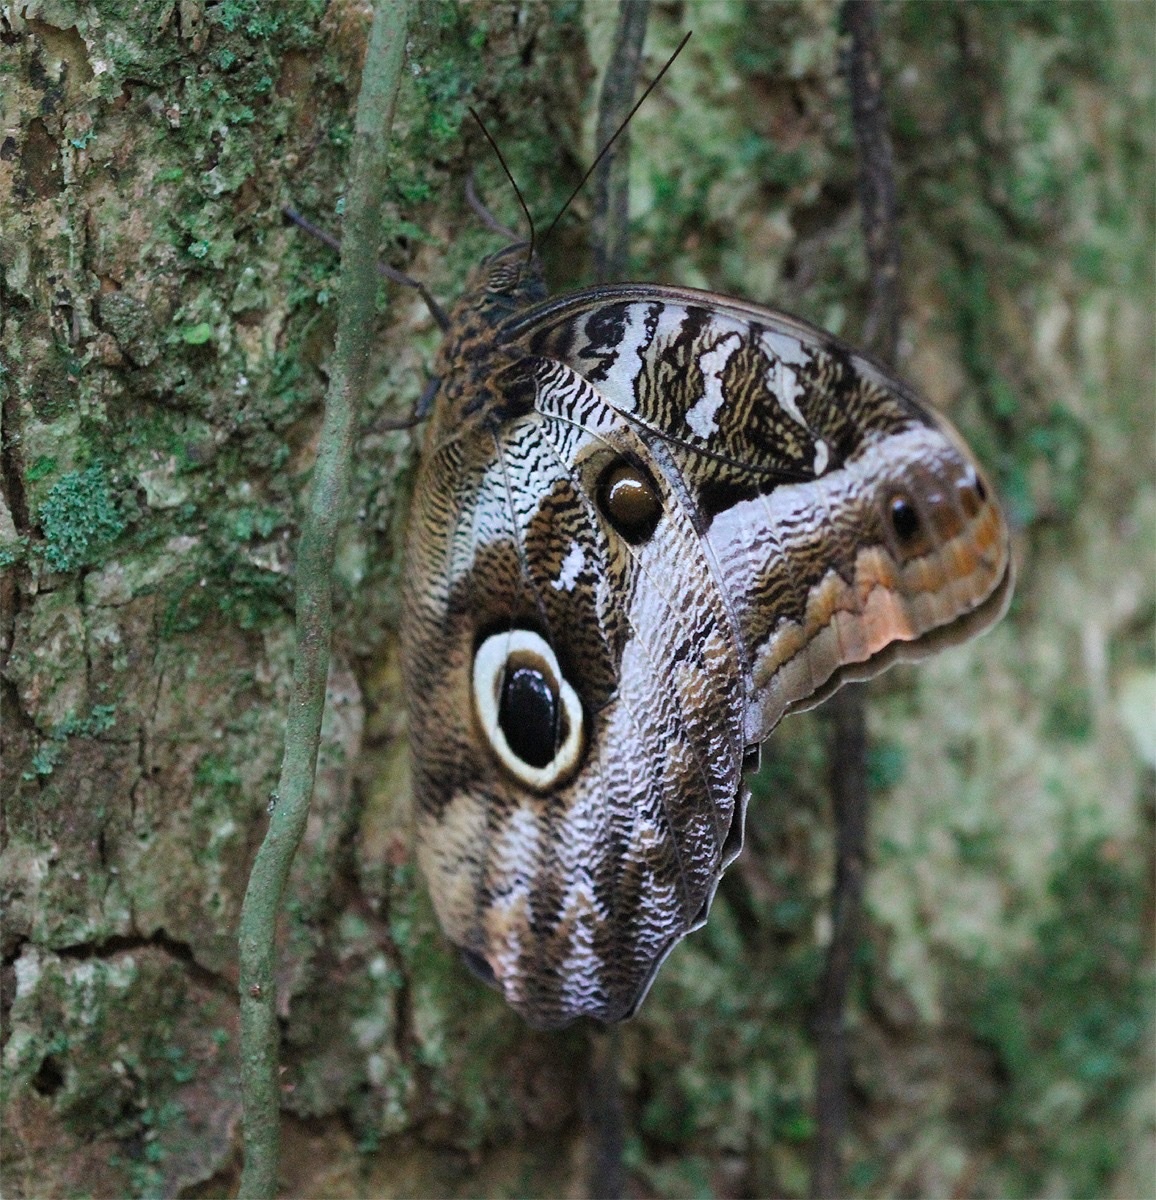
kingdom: Animalia
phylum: Arthropoda
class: Insecta
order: Lepidoptera
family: Nymphalidae
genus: Caligo
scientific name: Caligo idomeneus
